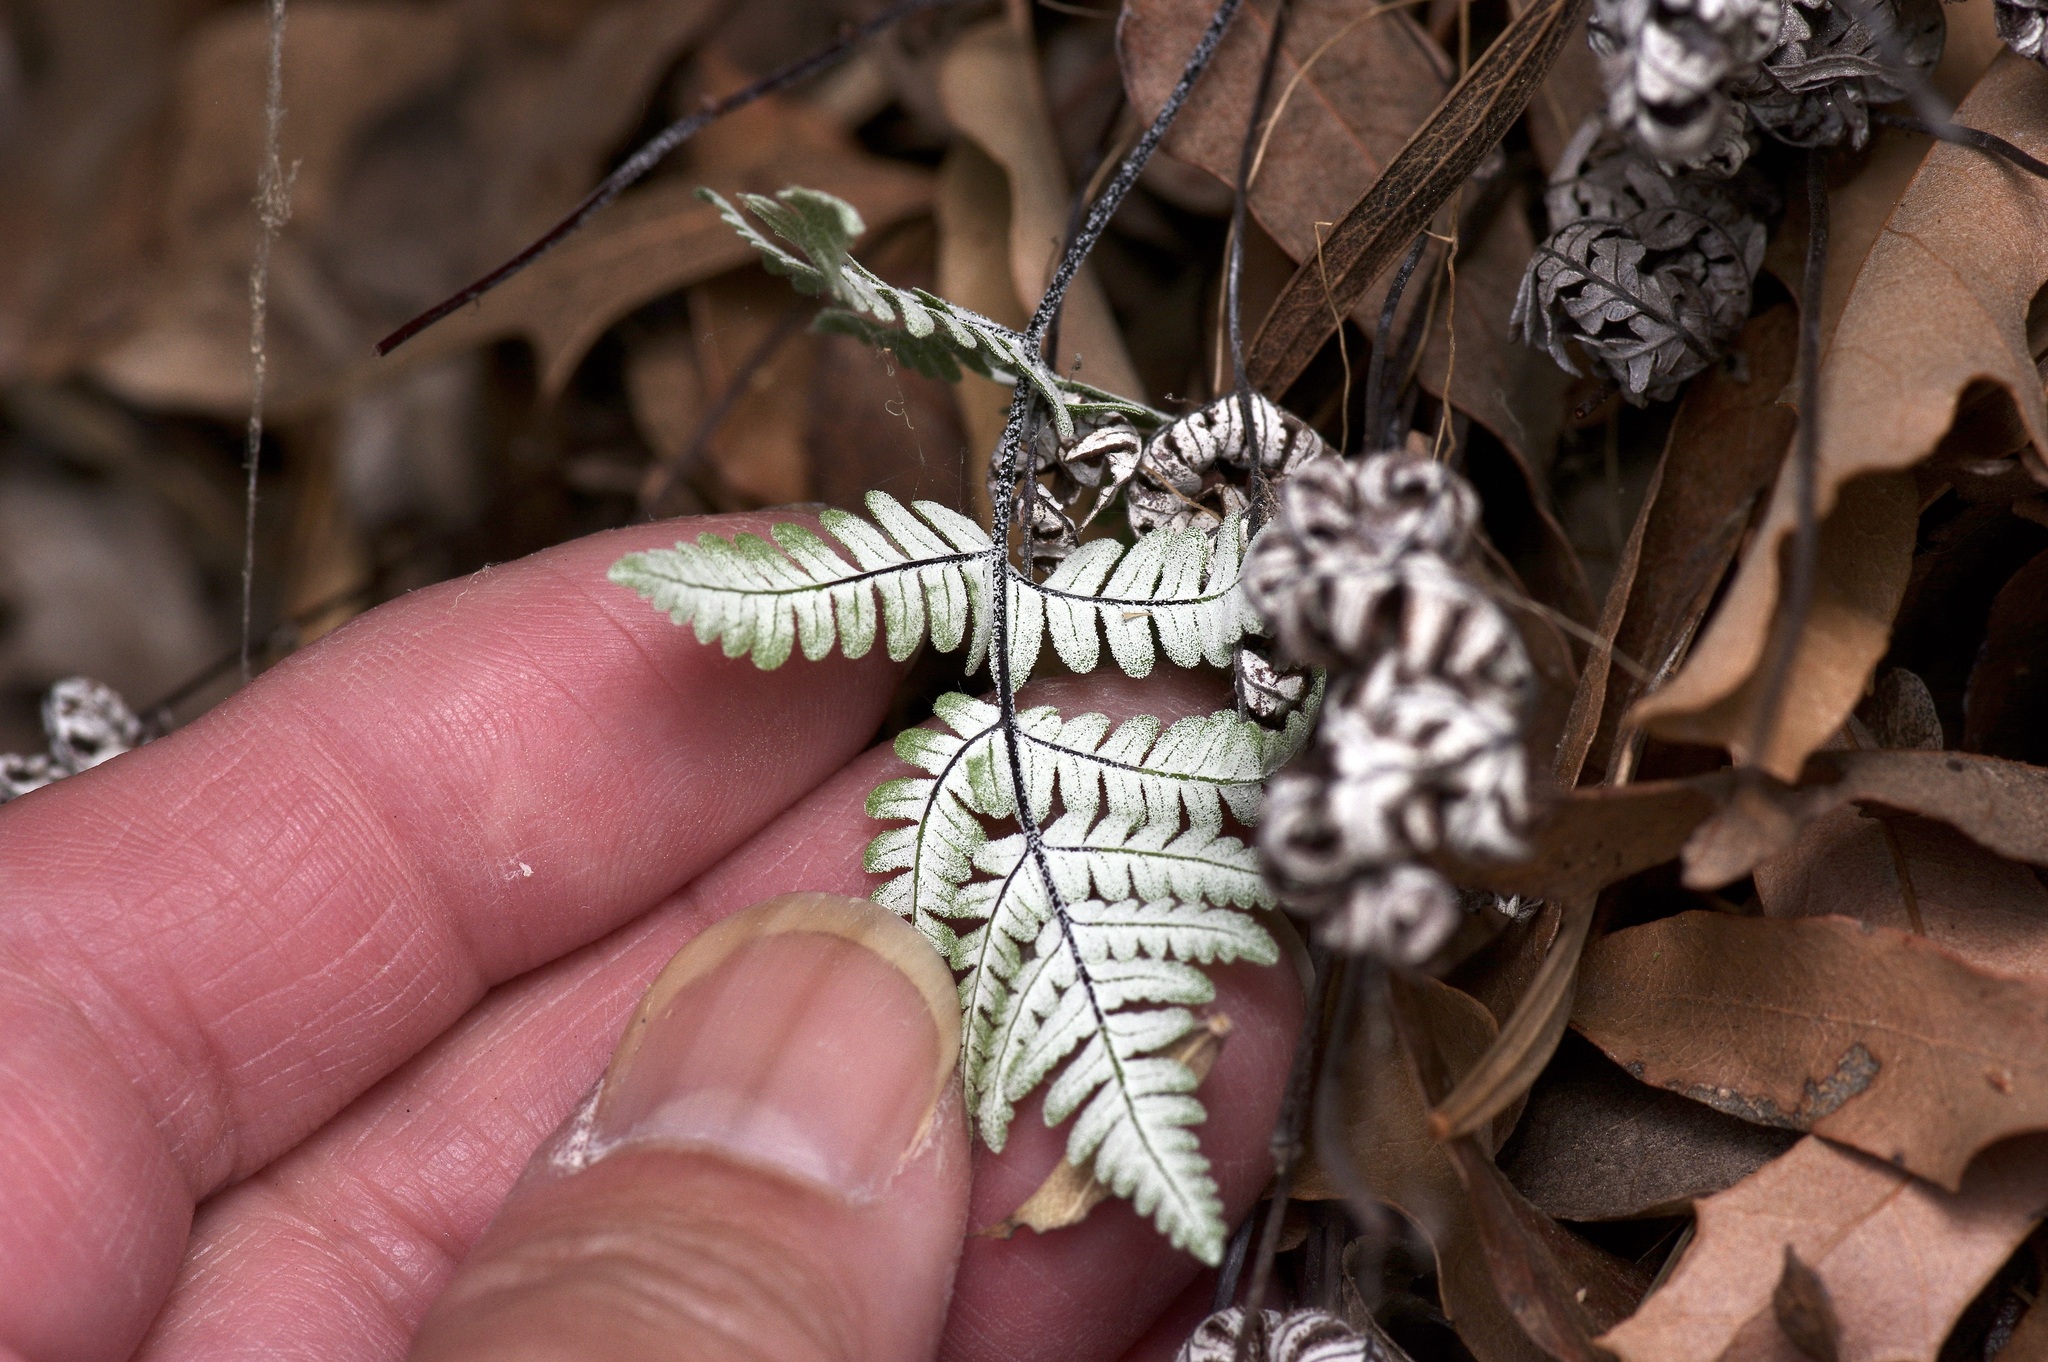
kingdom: Plantae
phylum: Tracheophyta
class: Polypodiopsida
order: Polypodiales
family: Pteridaceae
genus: Notholaena
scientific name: Notholaena candida
